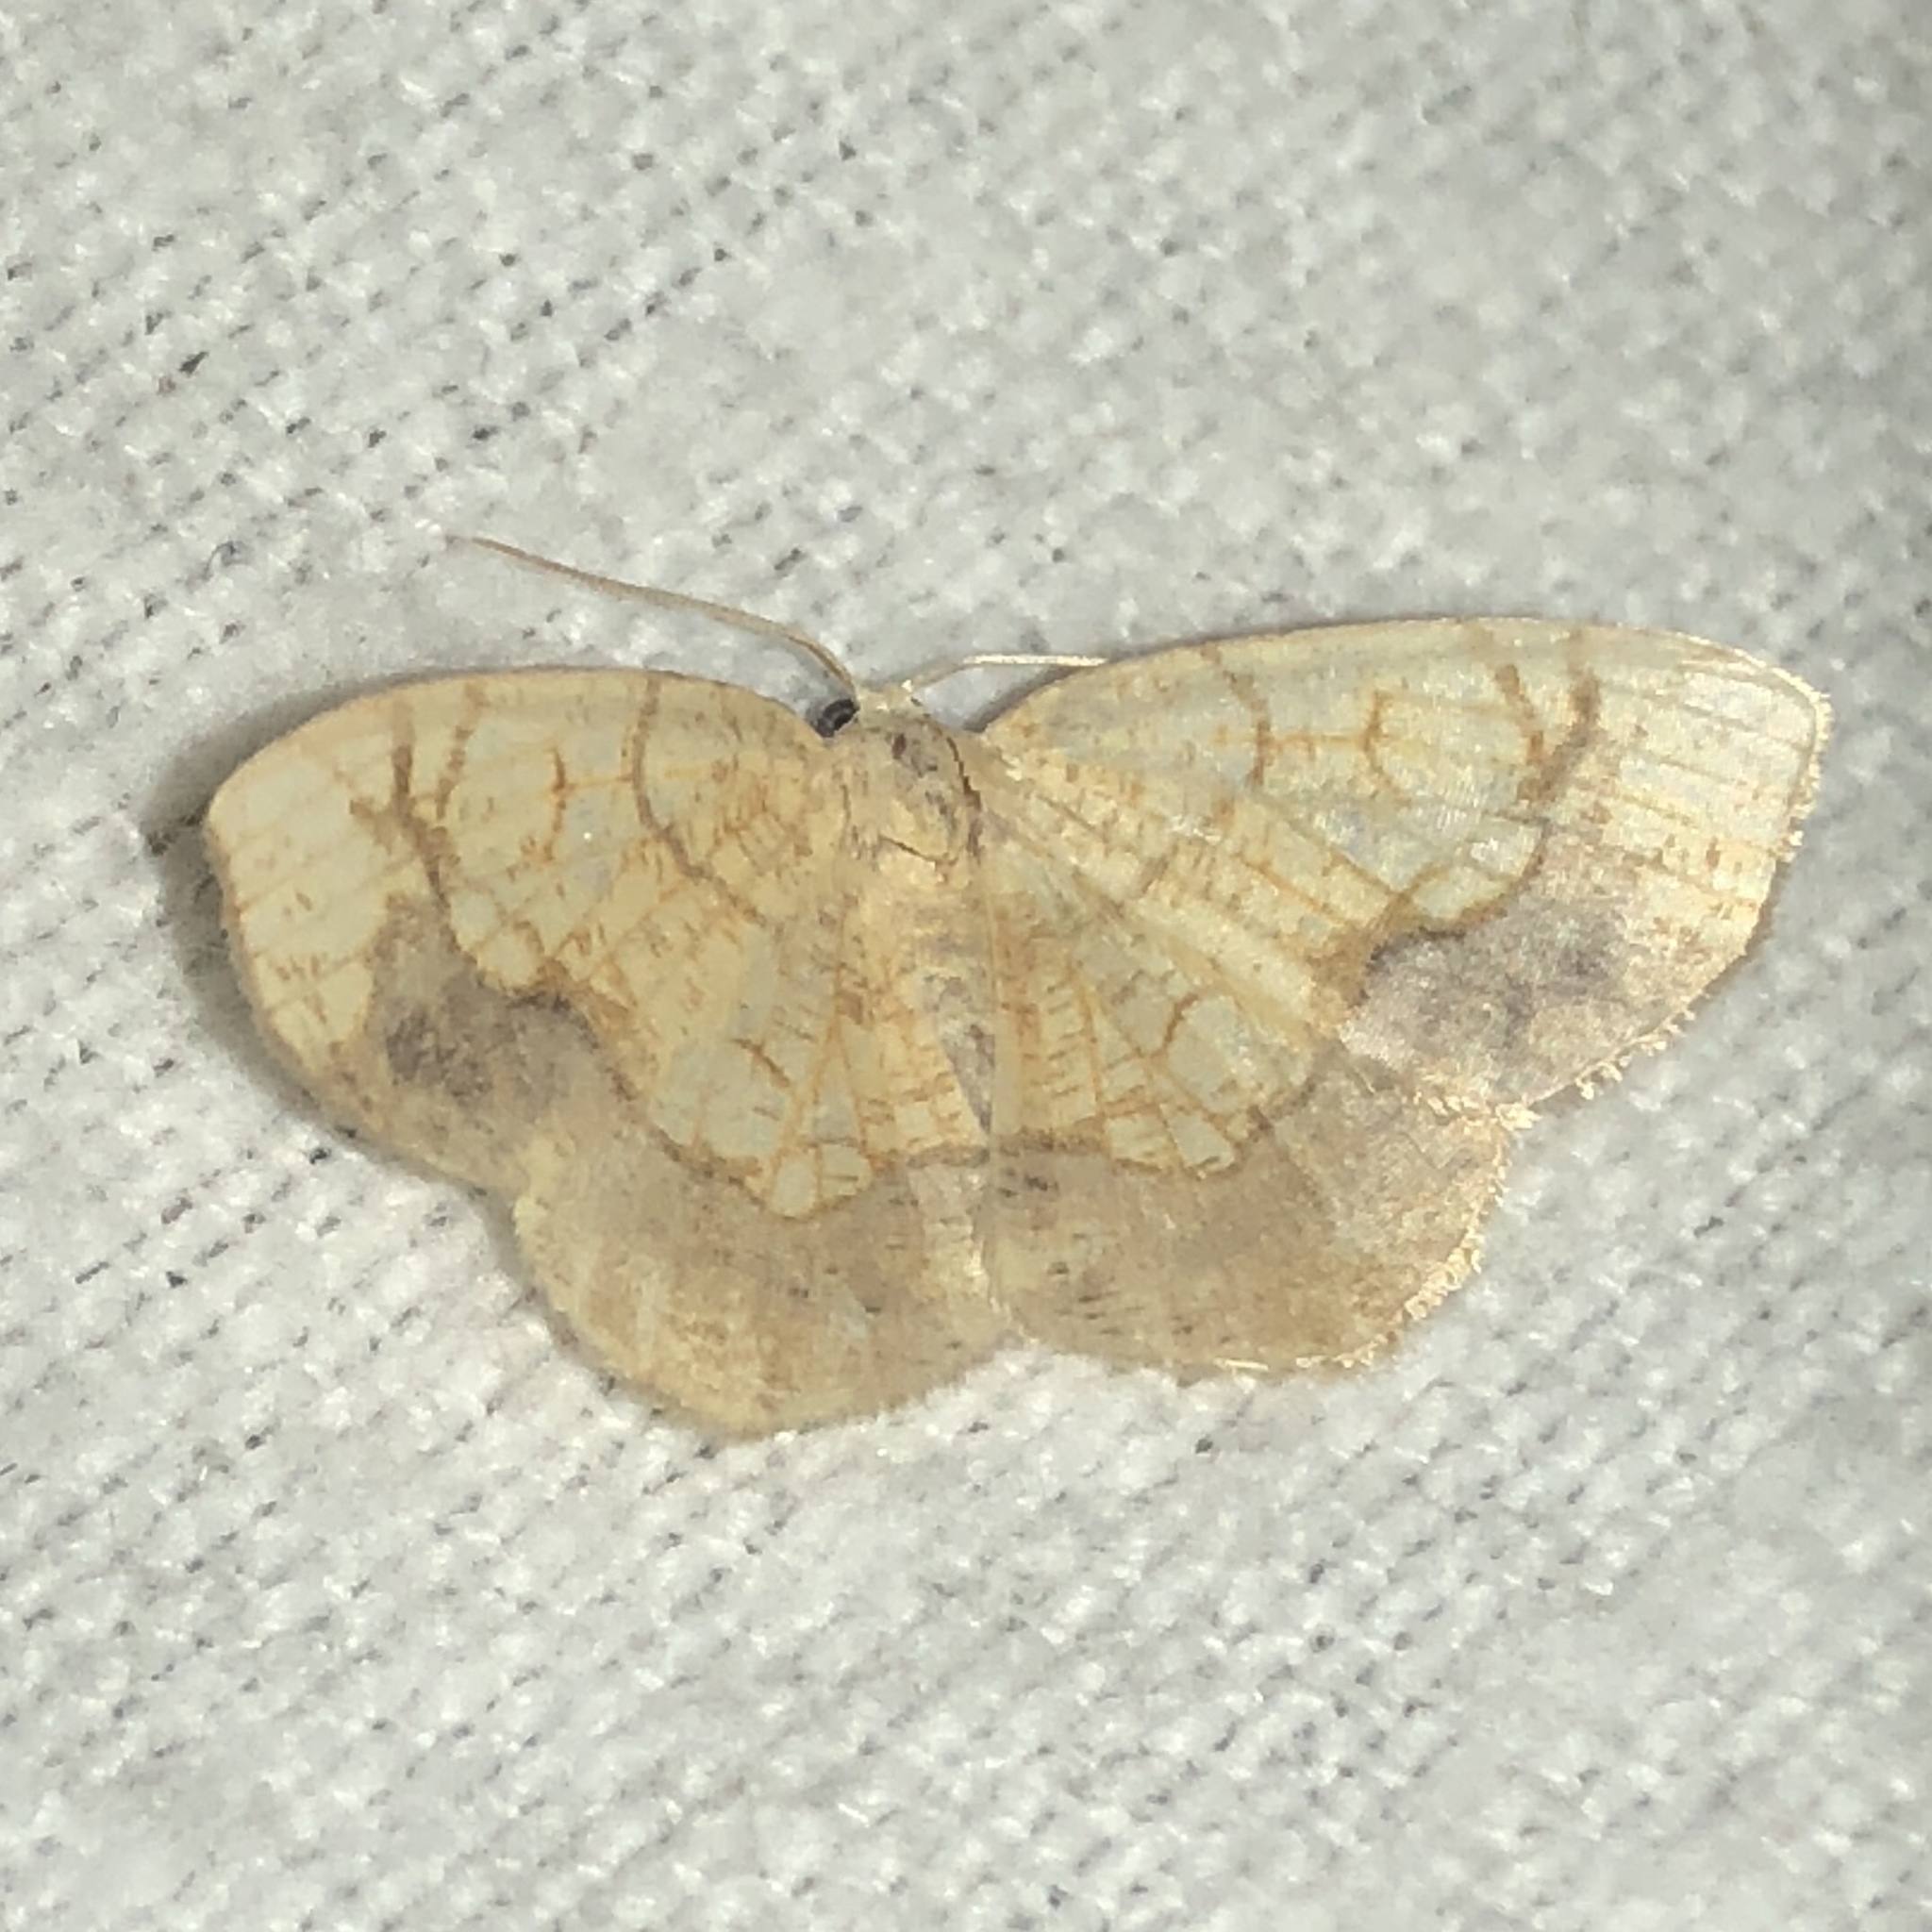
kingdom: Animalia
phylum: Arthropoda
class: Insecta
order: Lepidoptera
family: Geometridae
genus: Nematocampa
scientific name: Nematocampa resistaria
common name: Horned spanworm moth
